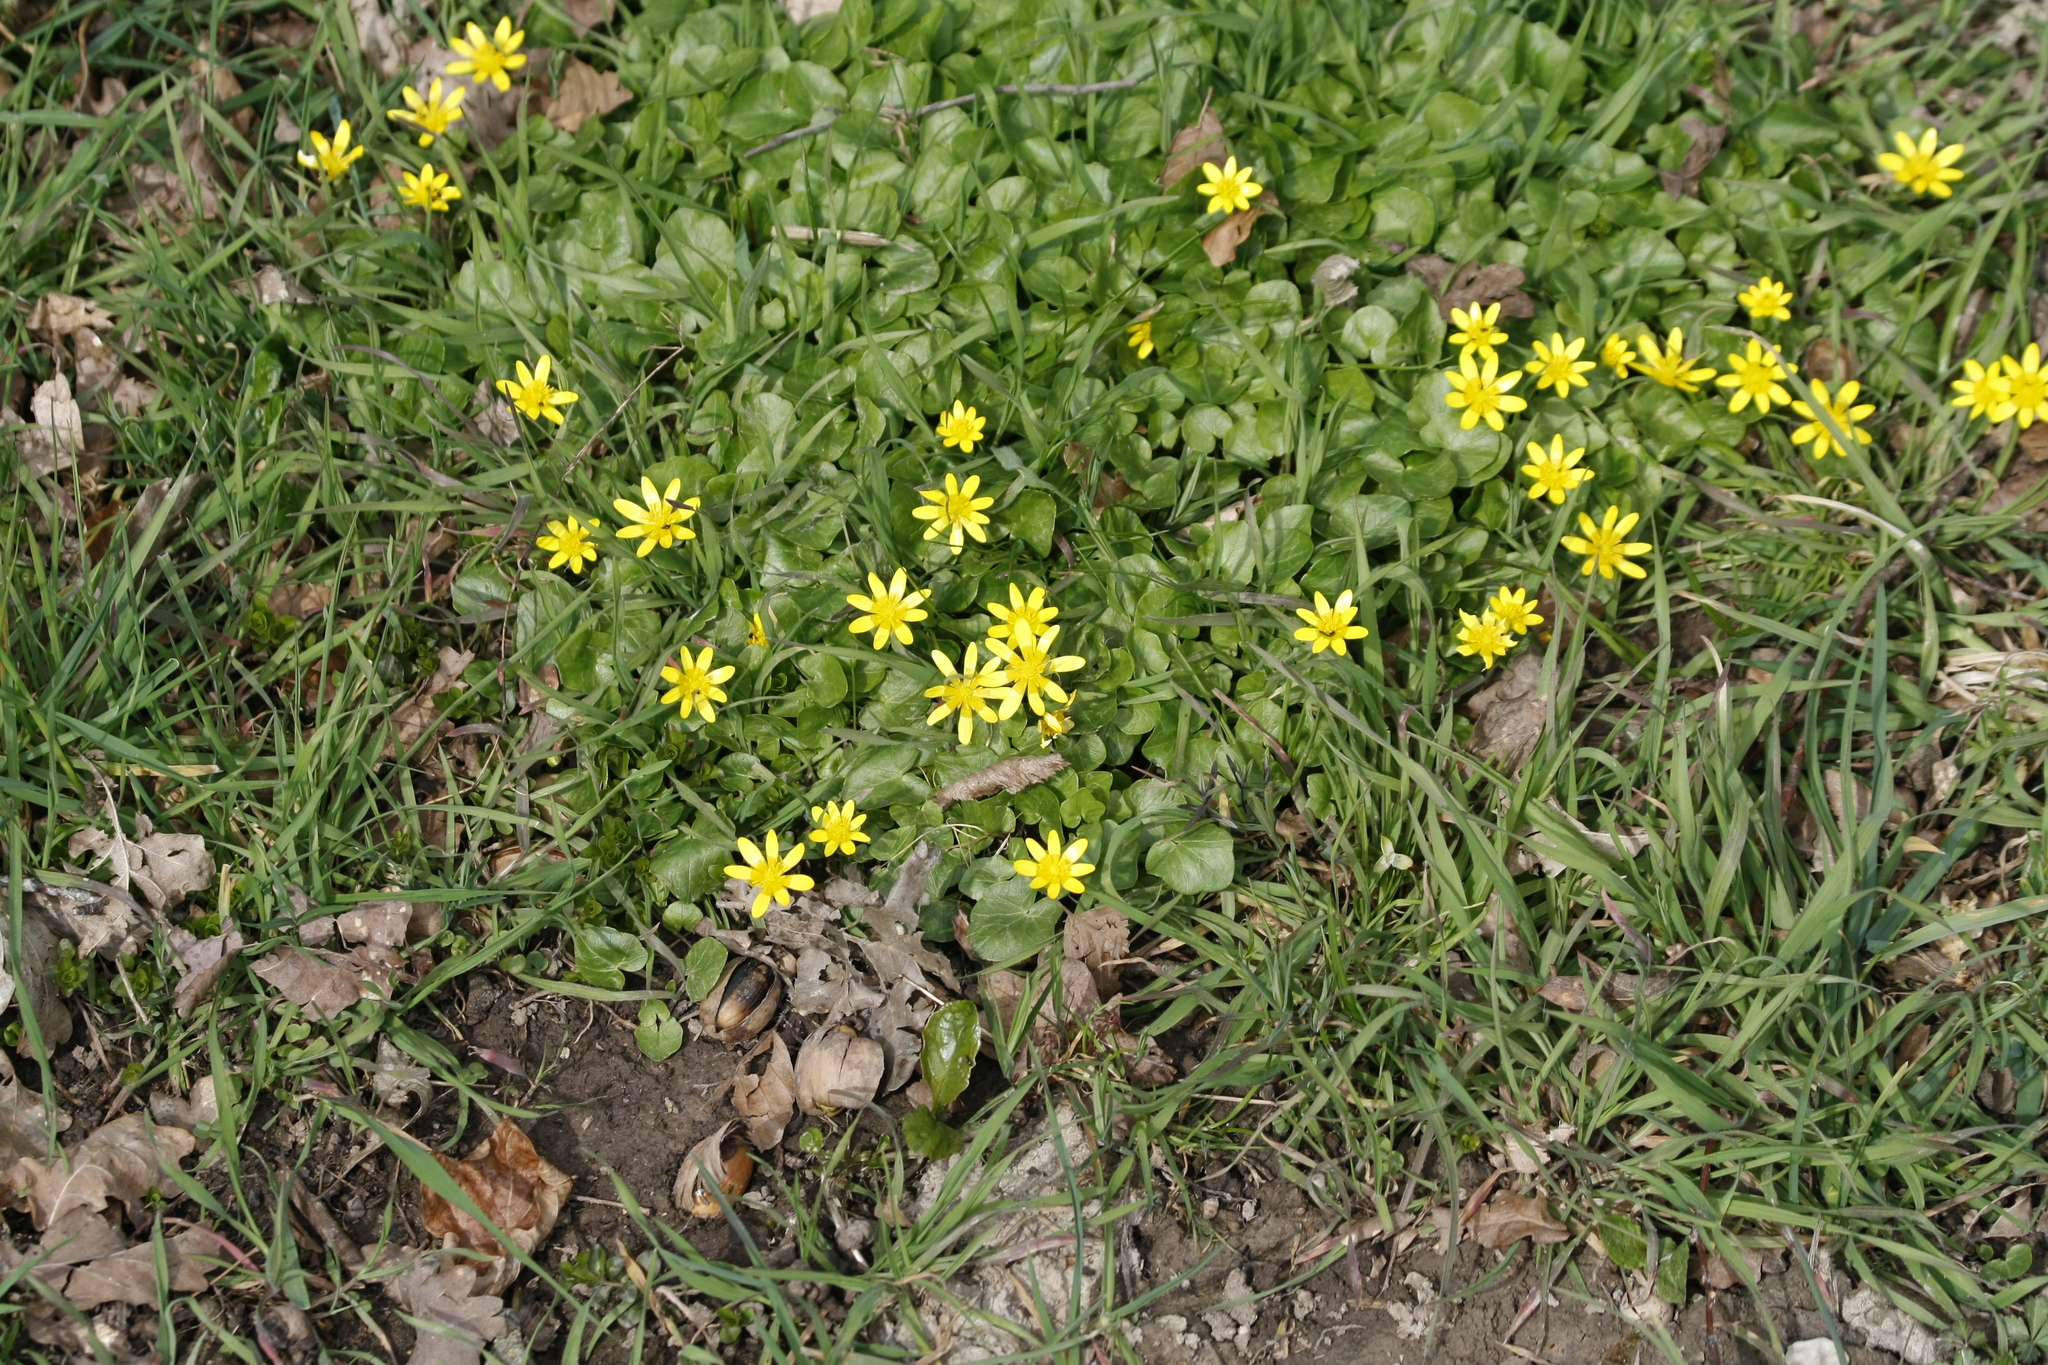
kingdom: Plantae
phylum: Tracheophyta
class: Magnoliopsida
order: Ranunculales
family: Ranunculaceae
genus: Ficaria
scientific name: Ficaria verna
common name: Lesser celandine
